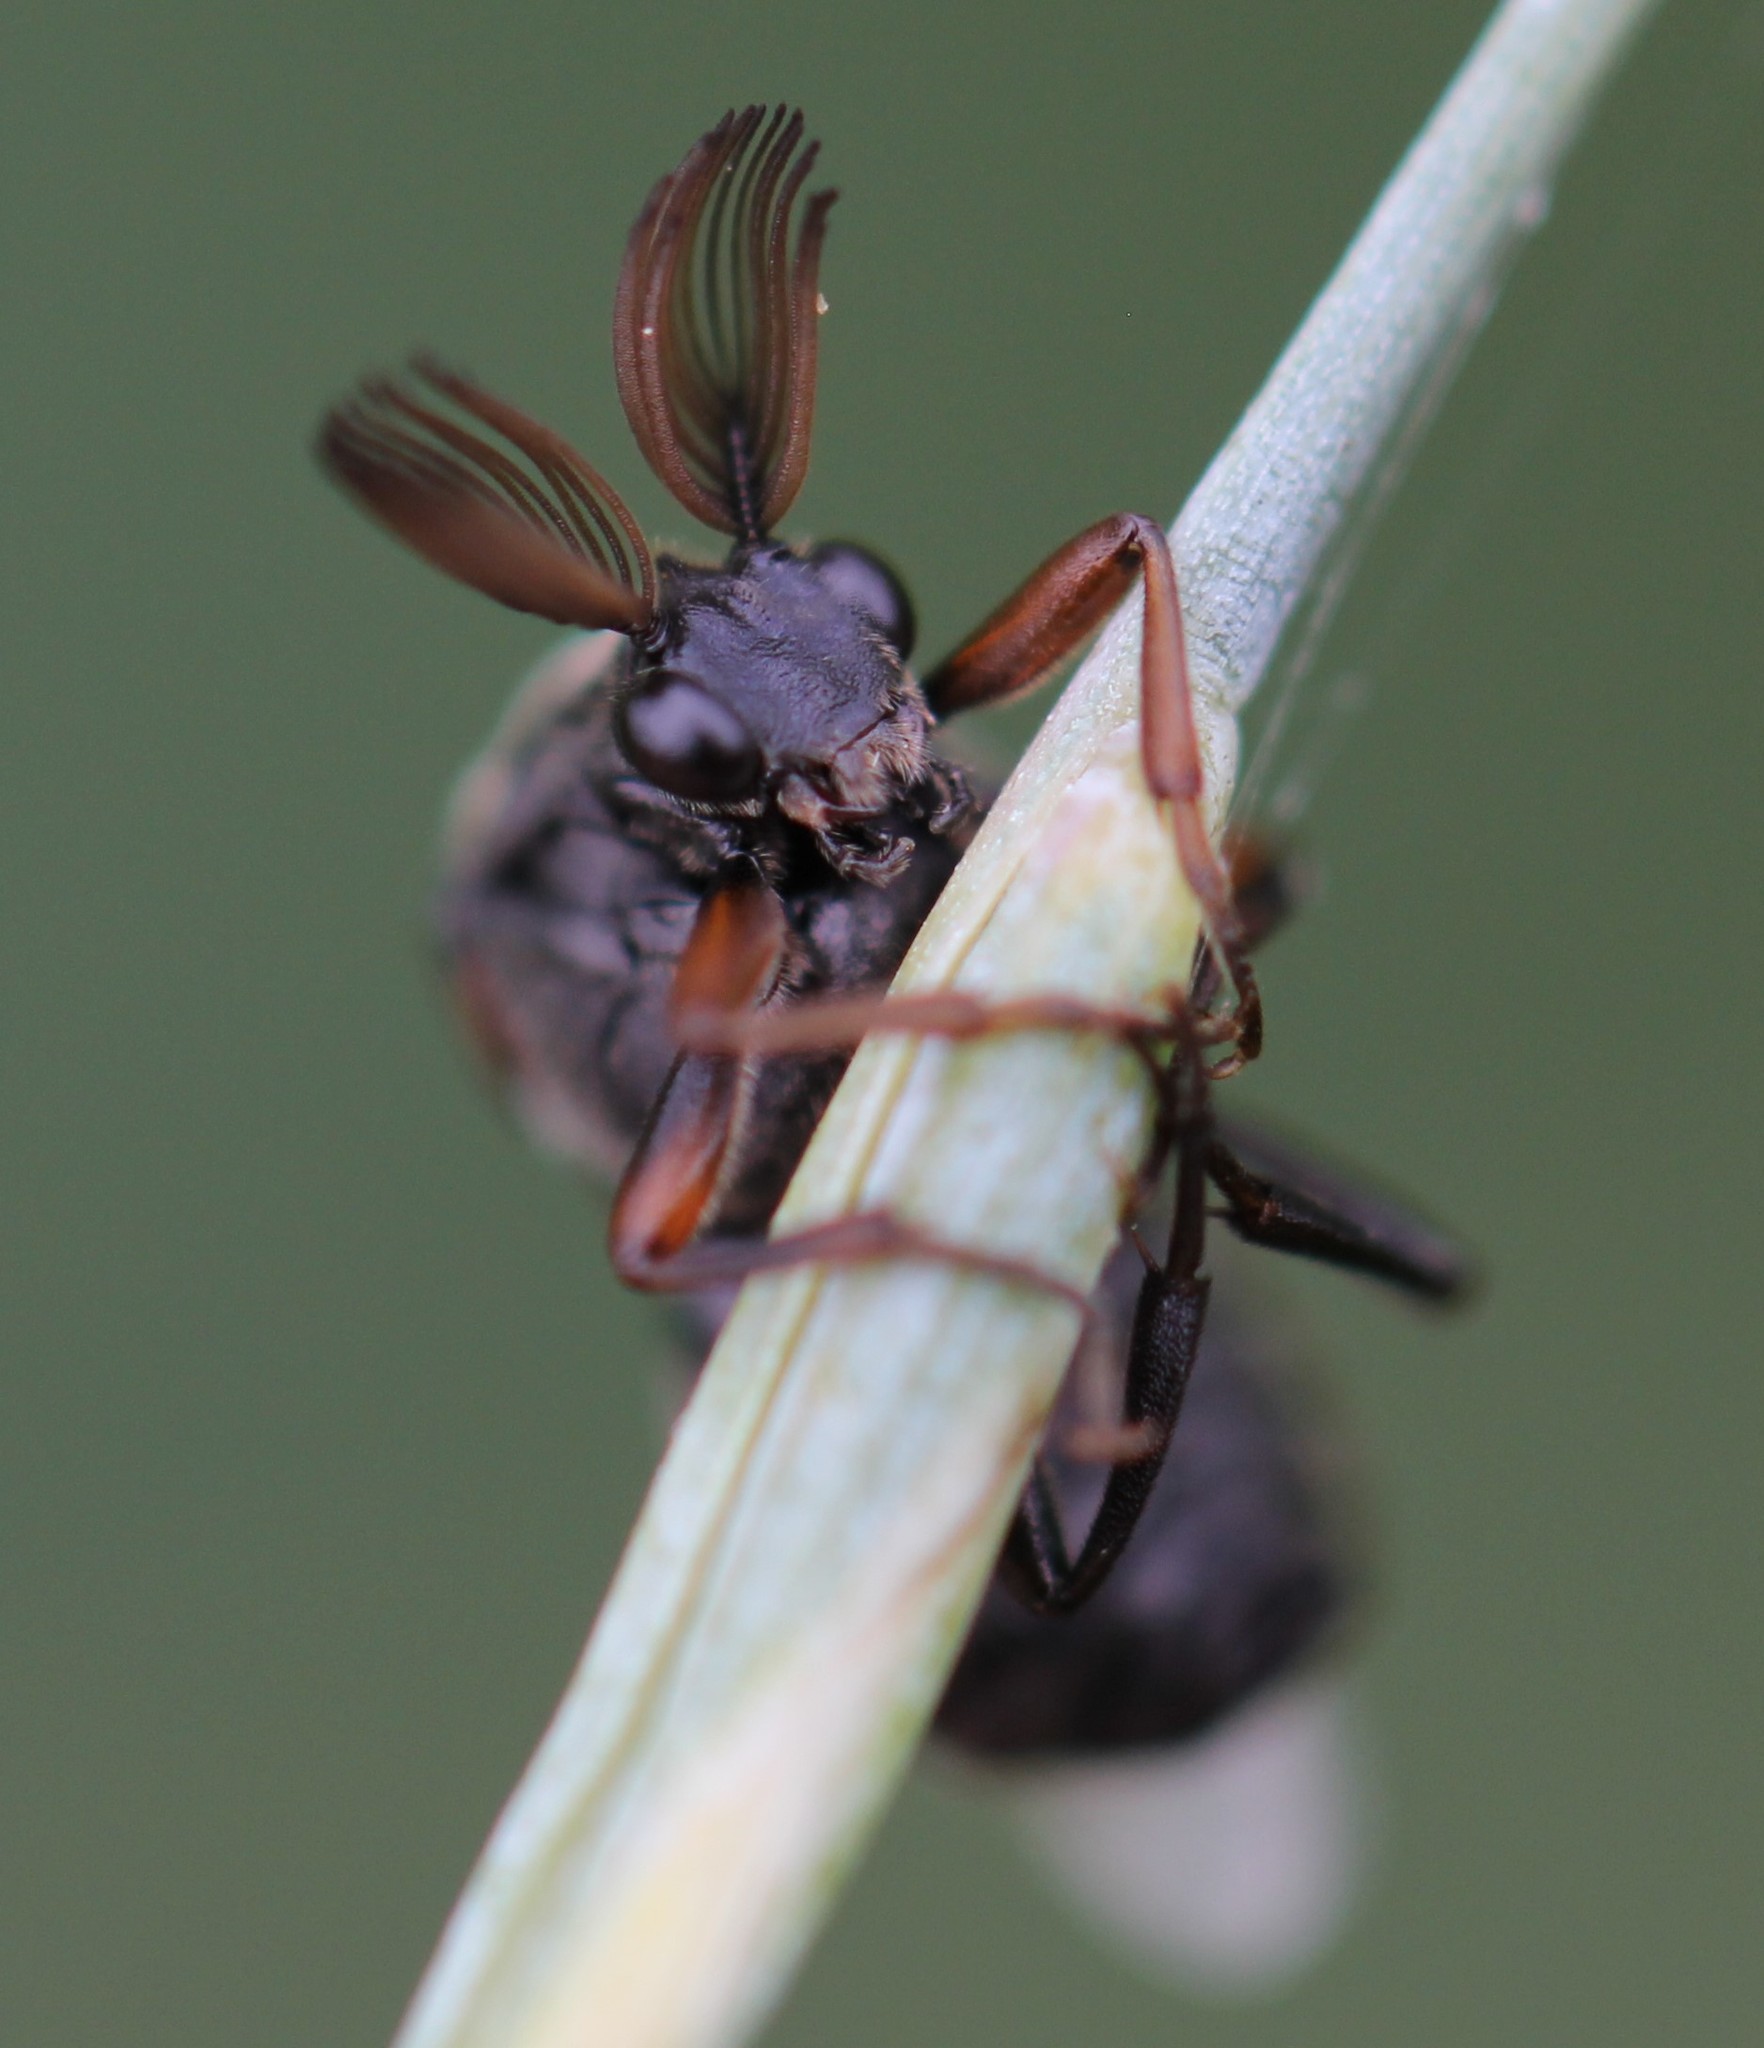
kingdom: Animalia
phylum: Arthropoda
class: Insecta
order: Coleoptera
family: Ripiphoridae
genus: Ripiphorus
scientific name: Ripiphorus
